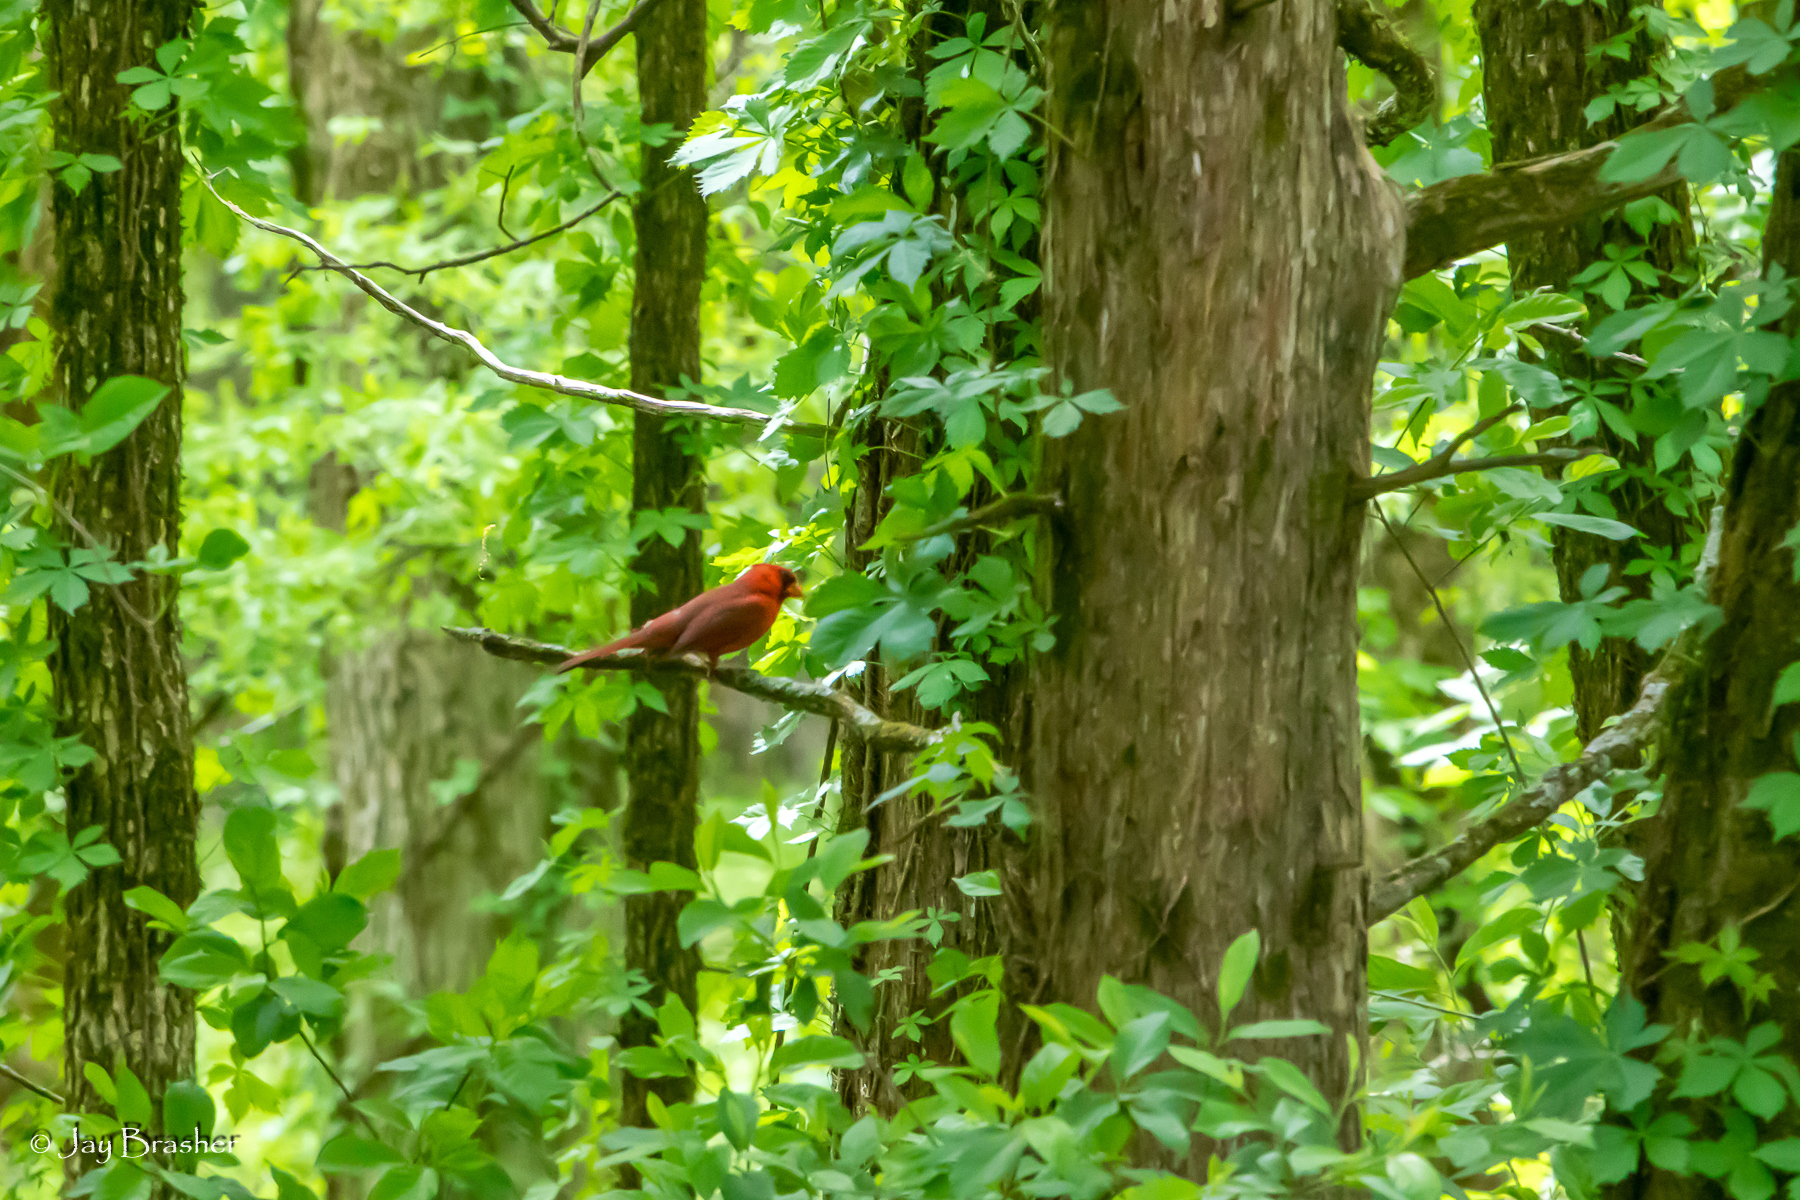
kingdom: Animalia
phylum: Chordata
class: Aves
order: Passeriformes
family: Cardinalidae
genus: Cardinalis
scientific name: Cardinalis cardinalis
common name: Northern cardinal
